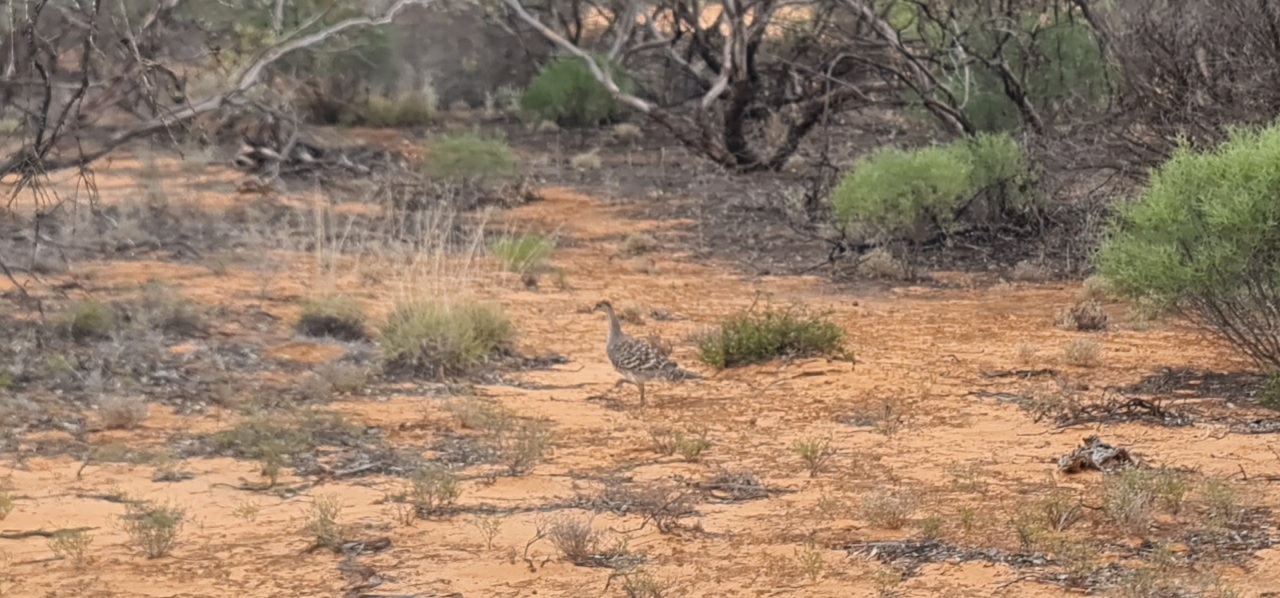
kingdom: Animalia
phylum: Chordata
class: Aves
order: Galliformes
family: Megapodiidae
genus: Leipoa
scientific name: Leipoa ocellata
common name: Malleefowl
